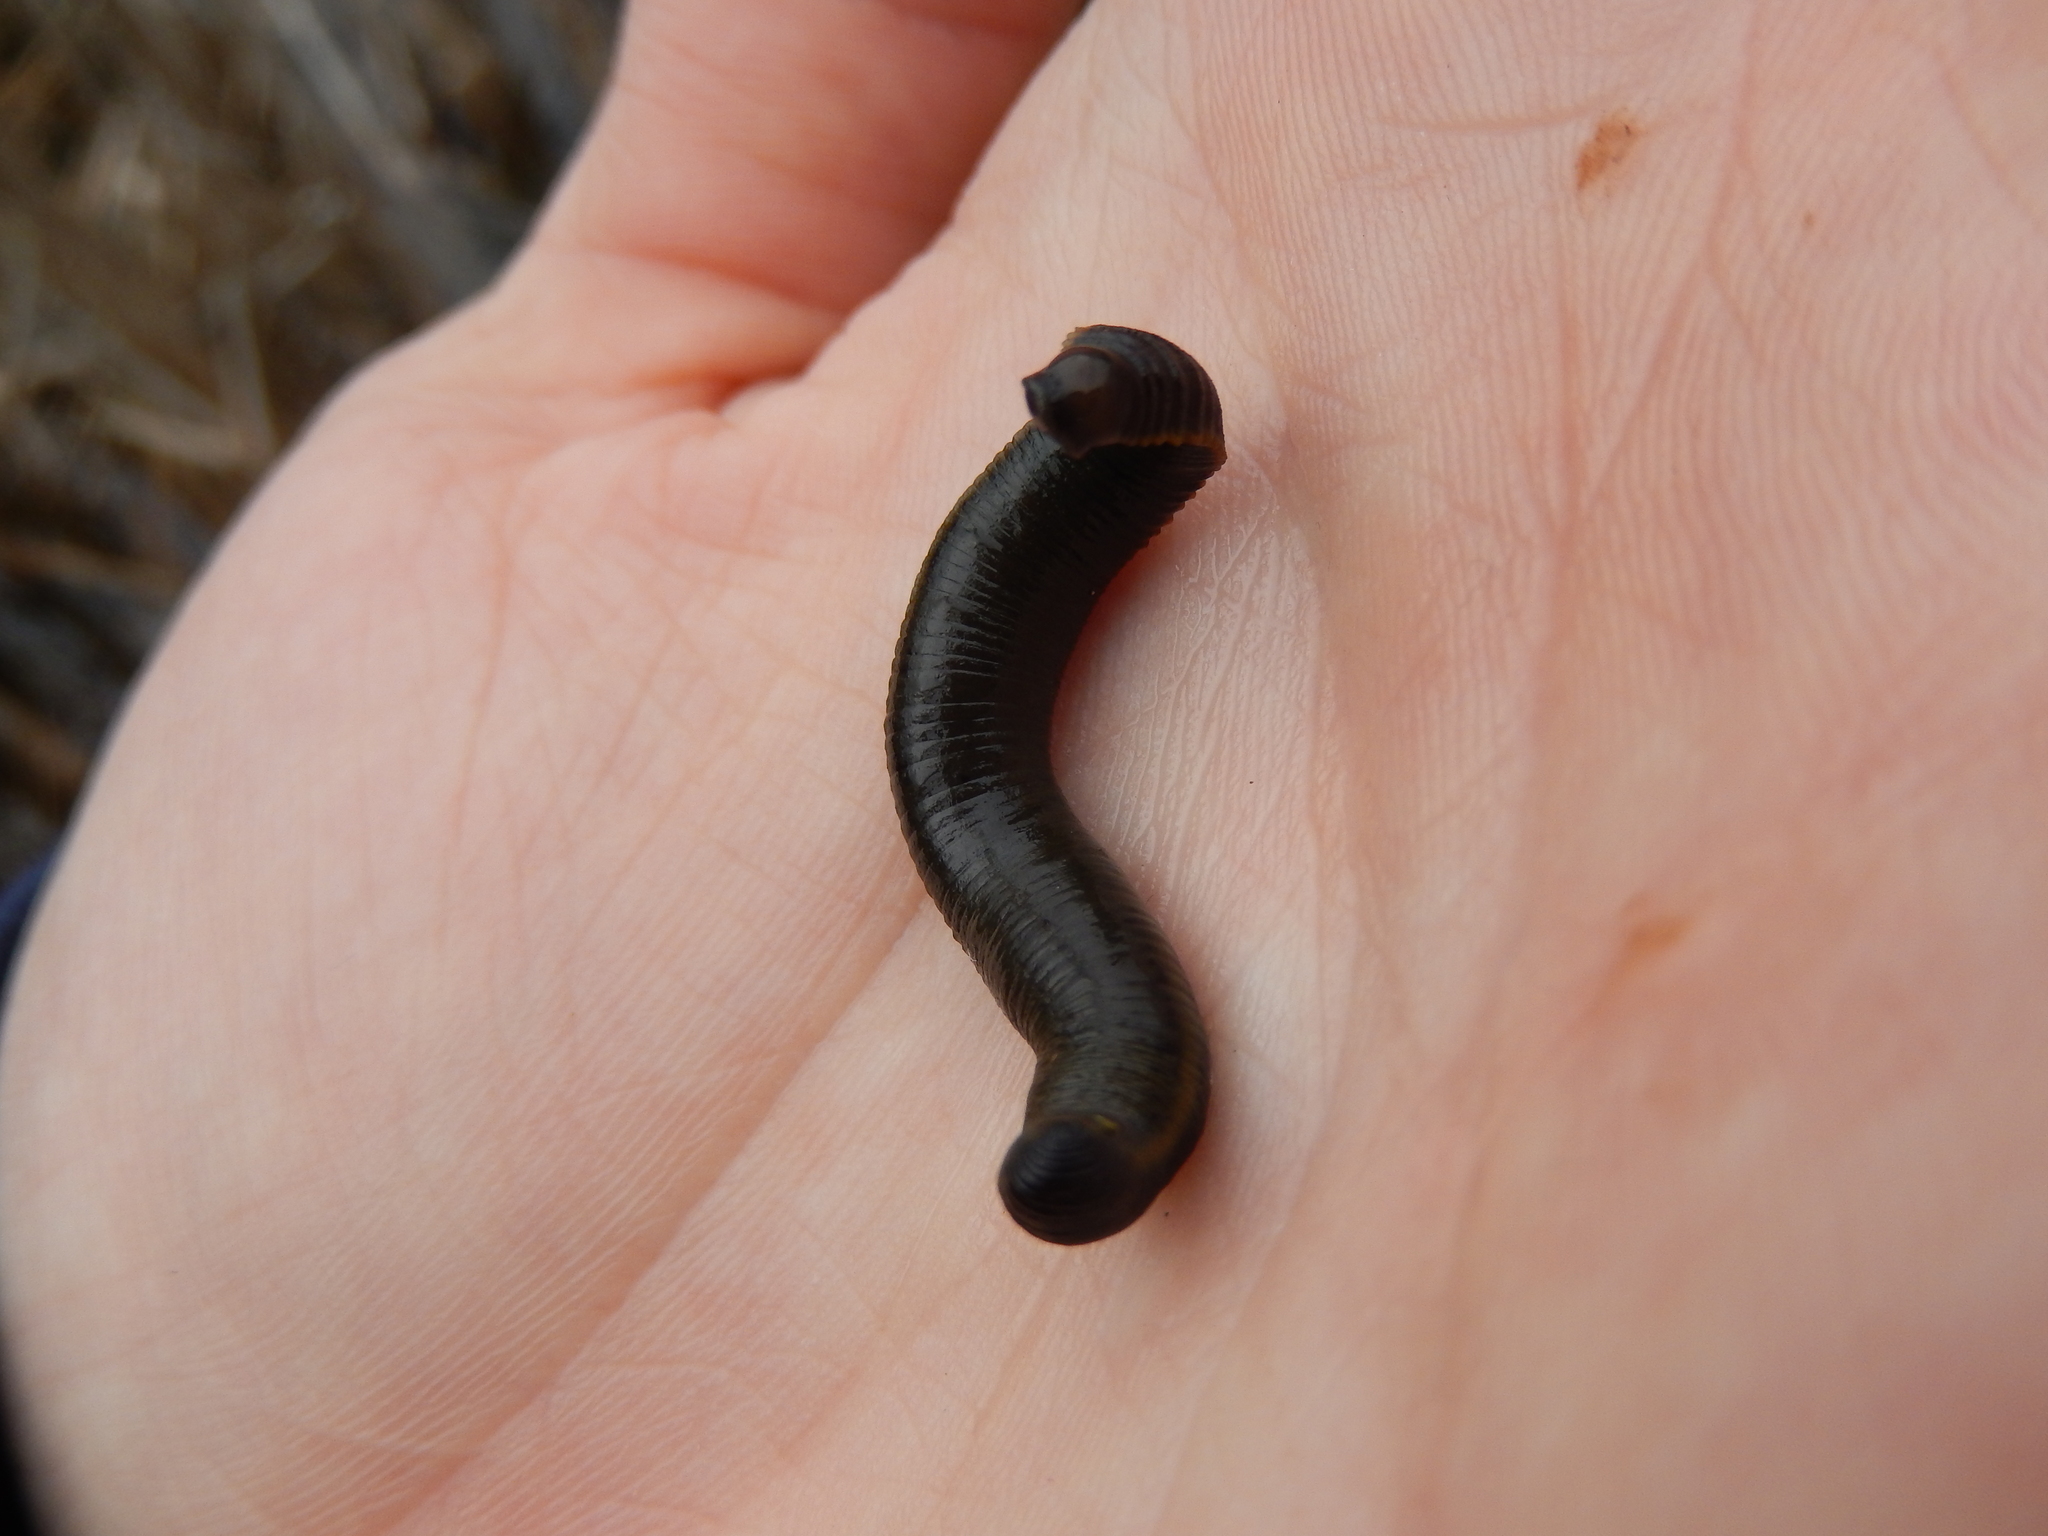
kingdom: Animalia
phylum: Annelida
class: Clitellata
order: Arhynchobdellida
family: Haemopidae
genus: Haemopis
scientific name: Haemopis sanguisuga
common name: Horse leech
